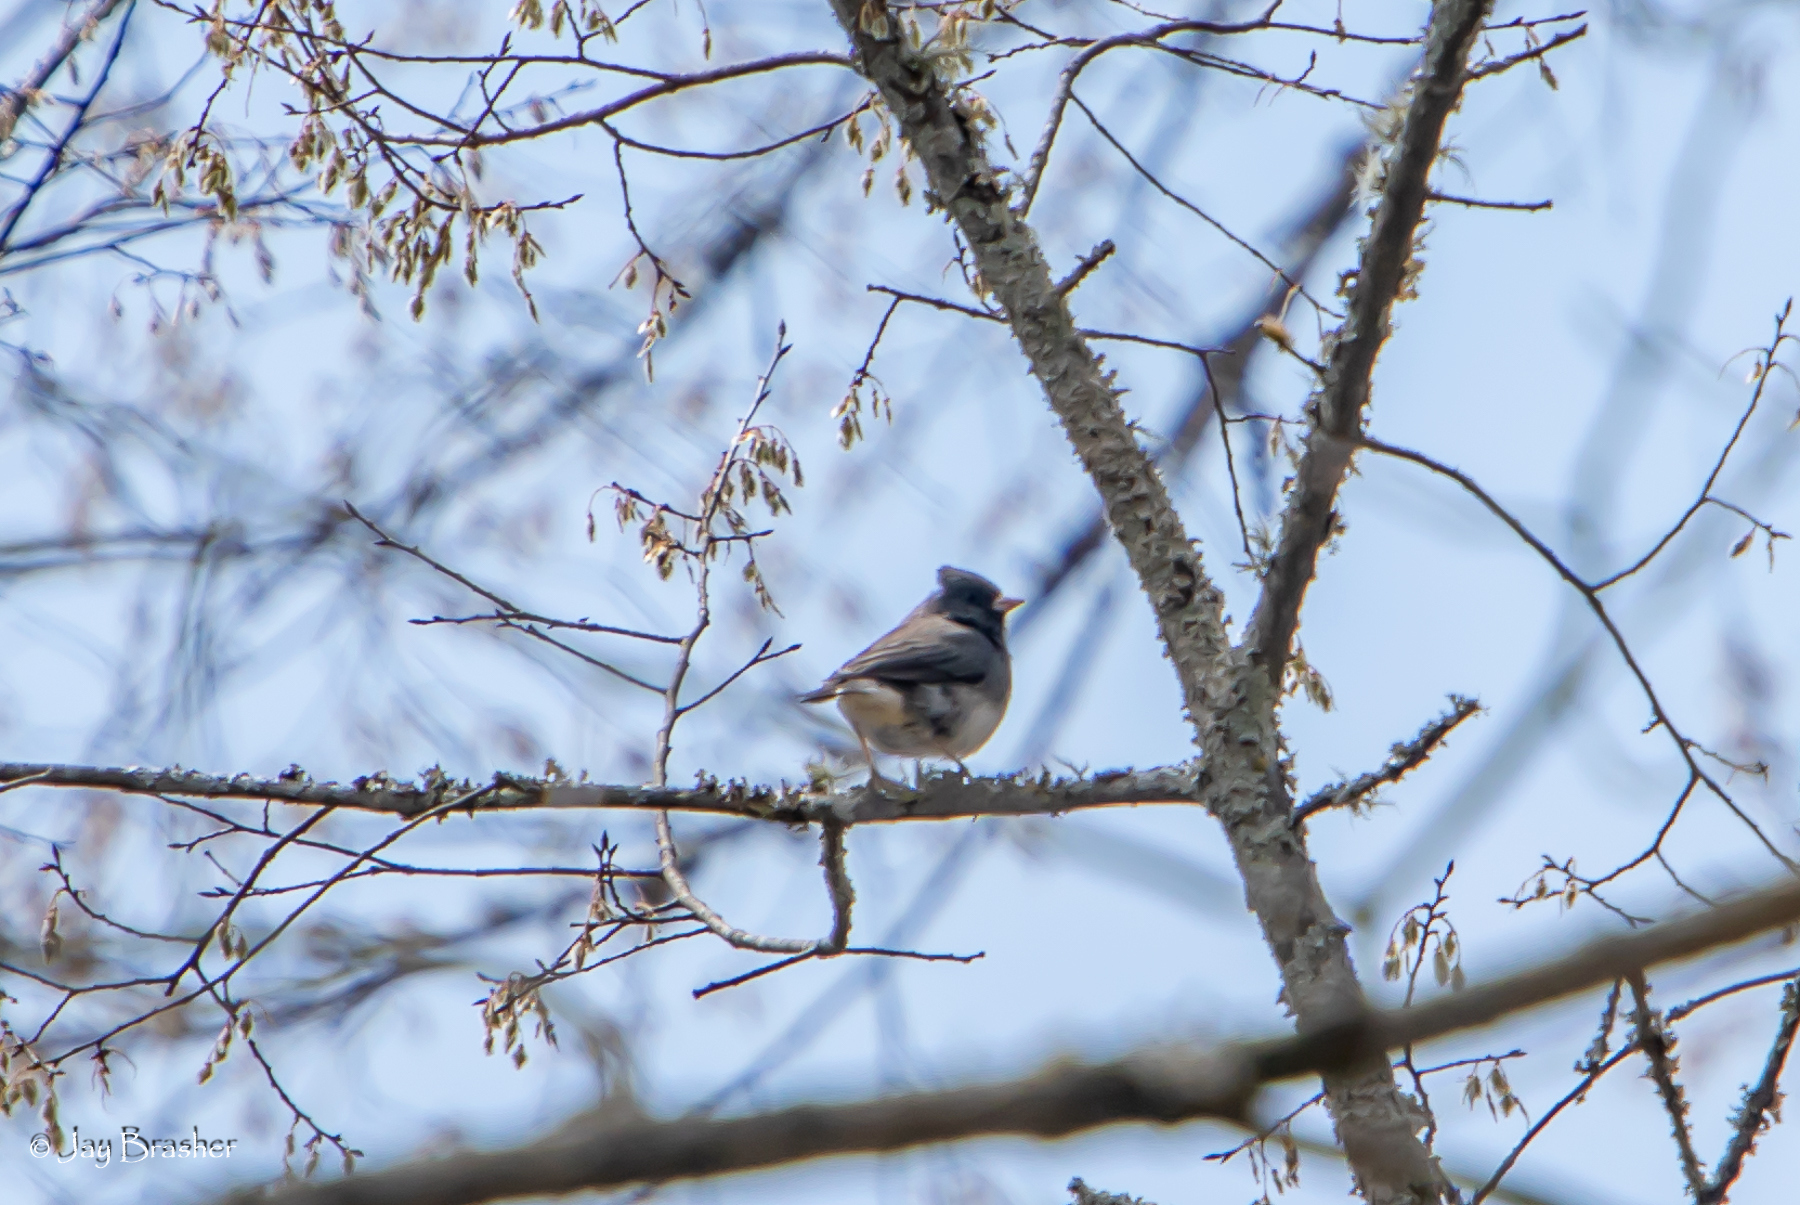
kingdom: Animalia
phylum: Chordata
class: Aves
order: Passeriformes
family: Passerellidae
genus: Junco
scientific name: Junco hyemalis
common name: Dark-eyed junco
